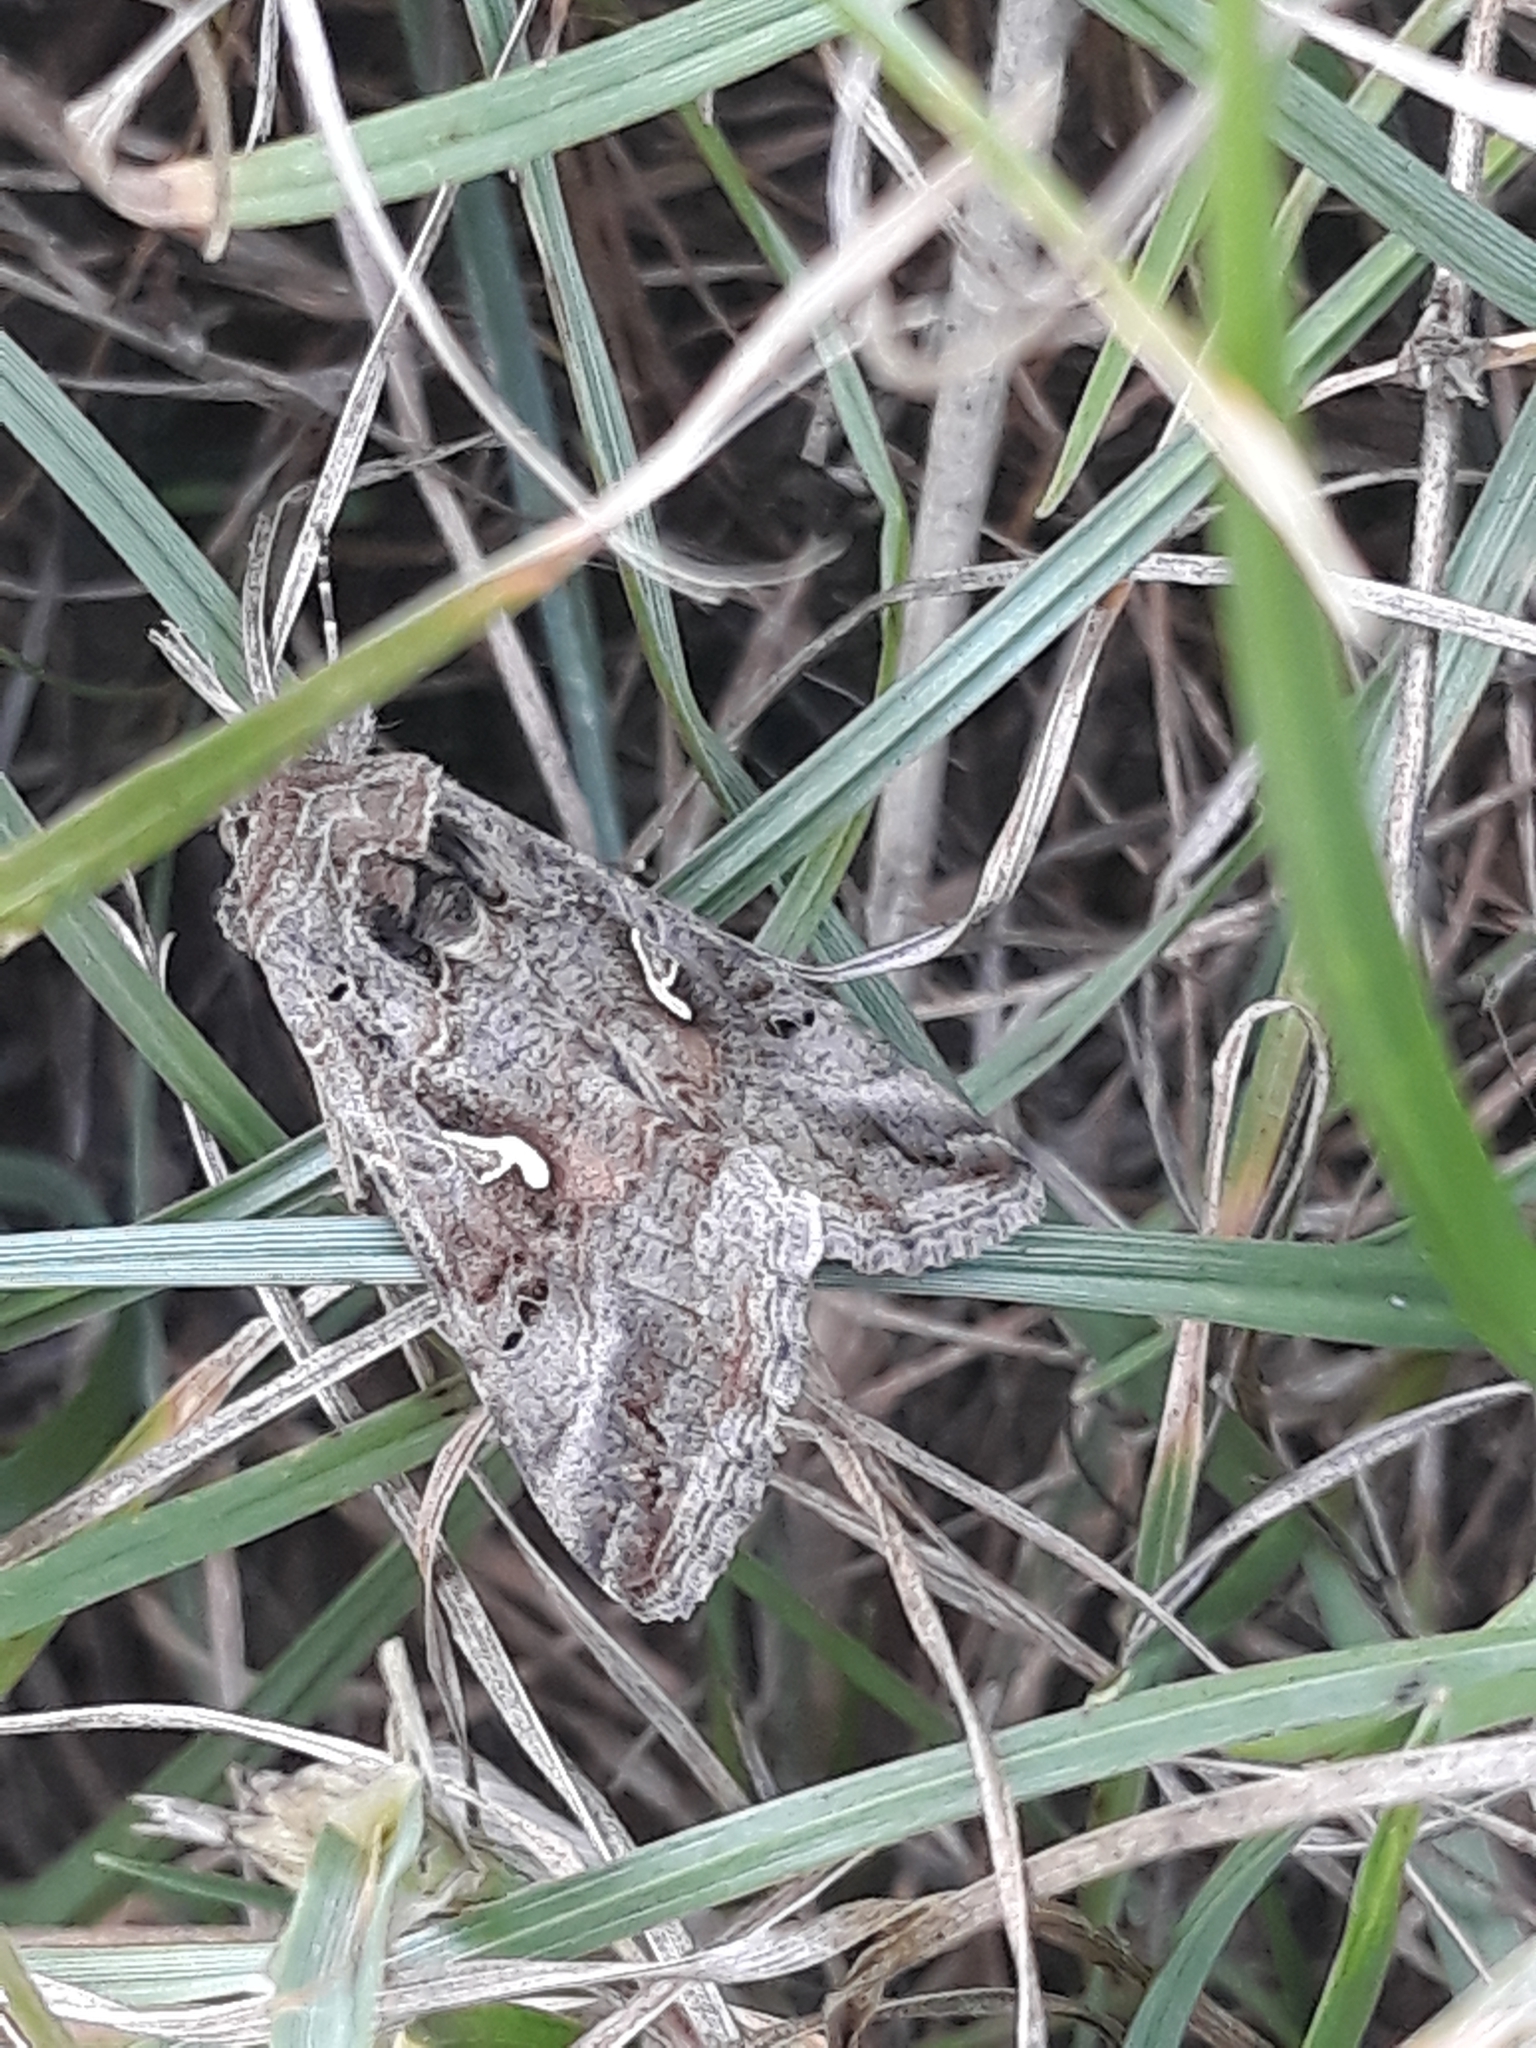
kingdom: Animalia
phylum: Arthropoda
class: Insecta
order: Lepidoptera
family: Noctuidae
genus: Autographa
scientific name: Autographa gamma
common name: Silver y
